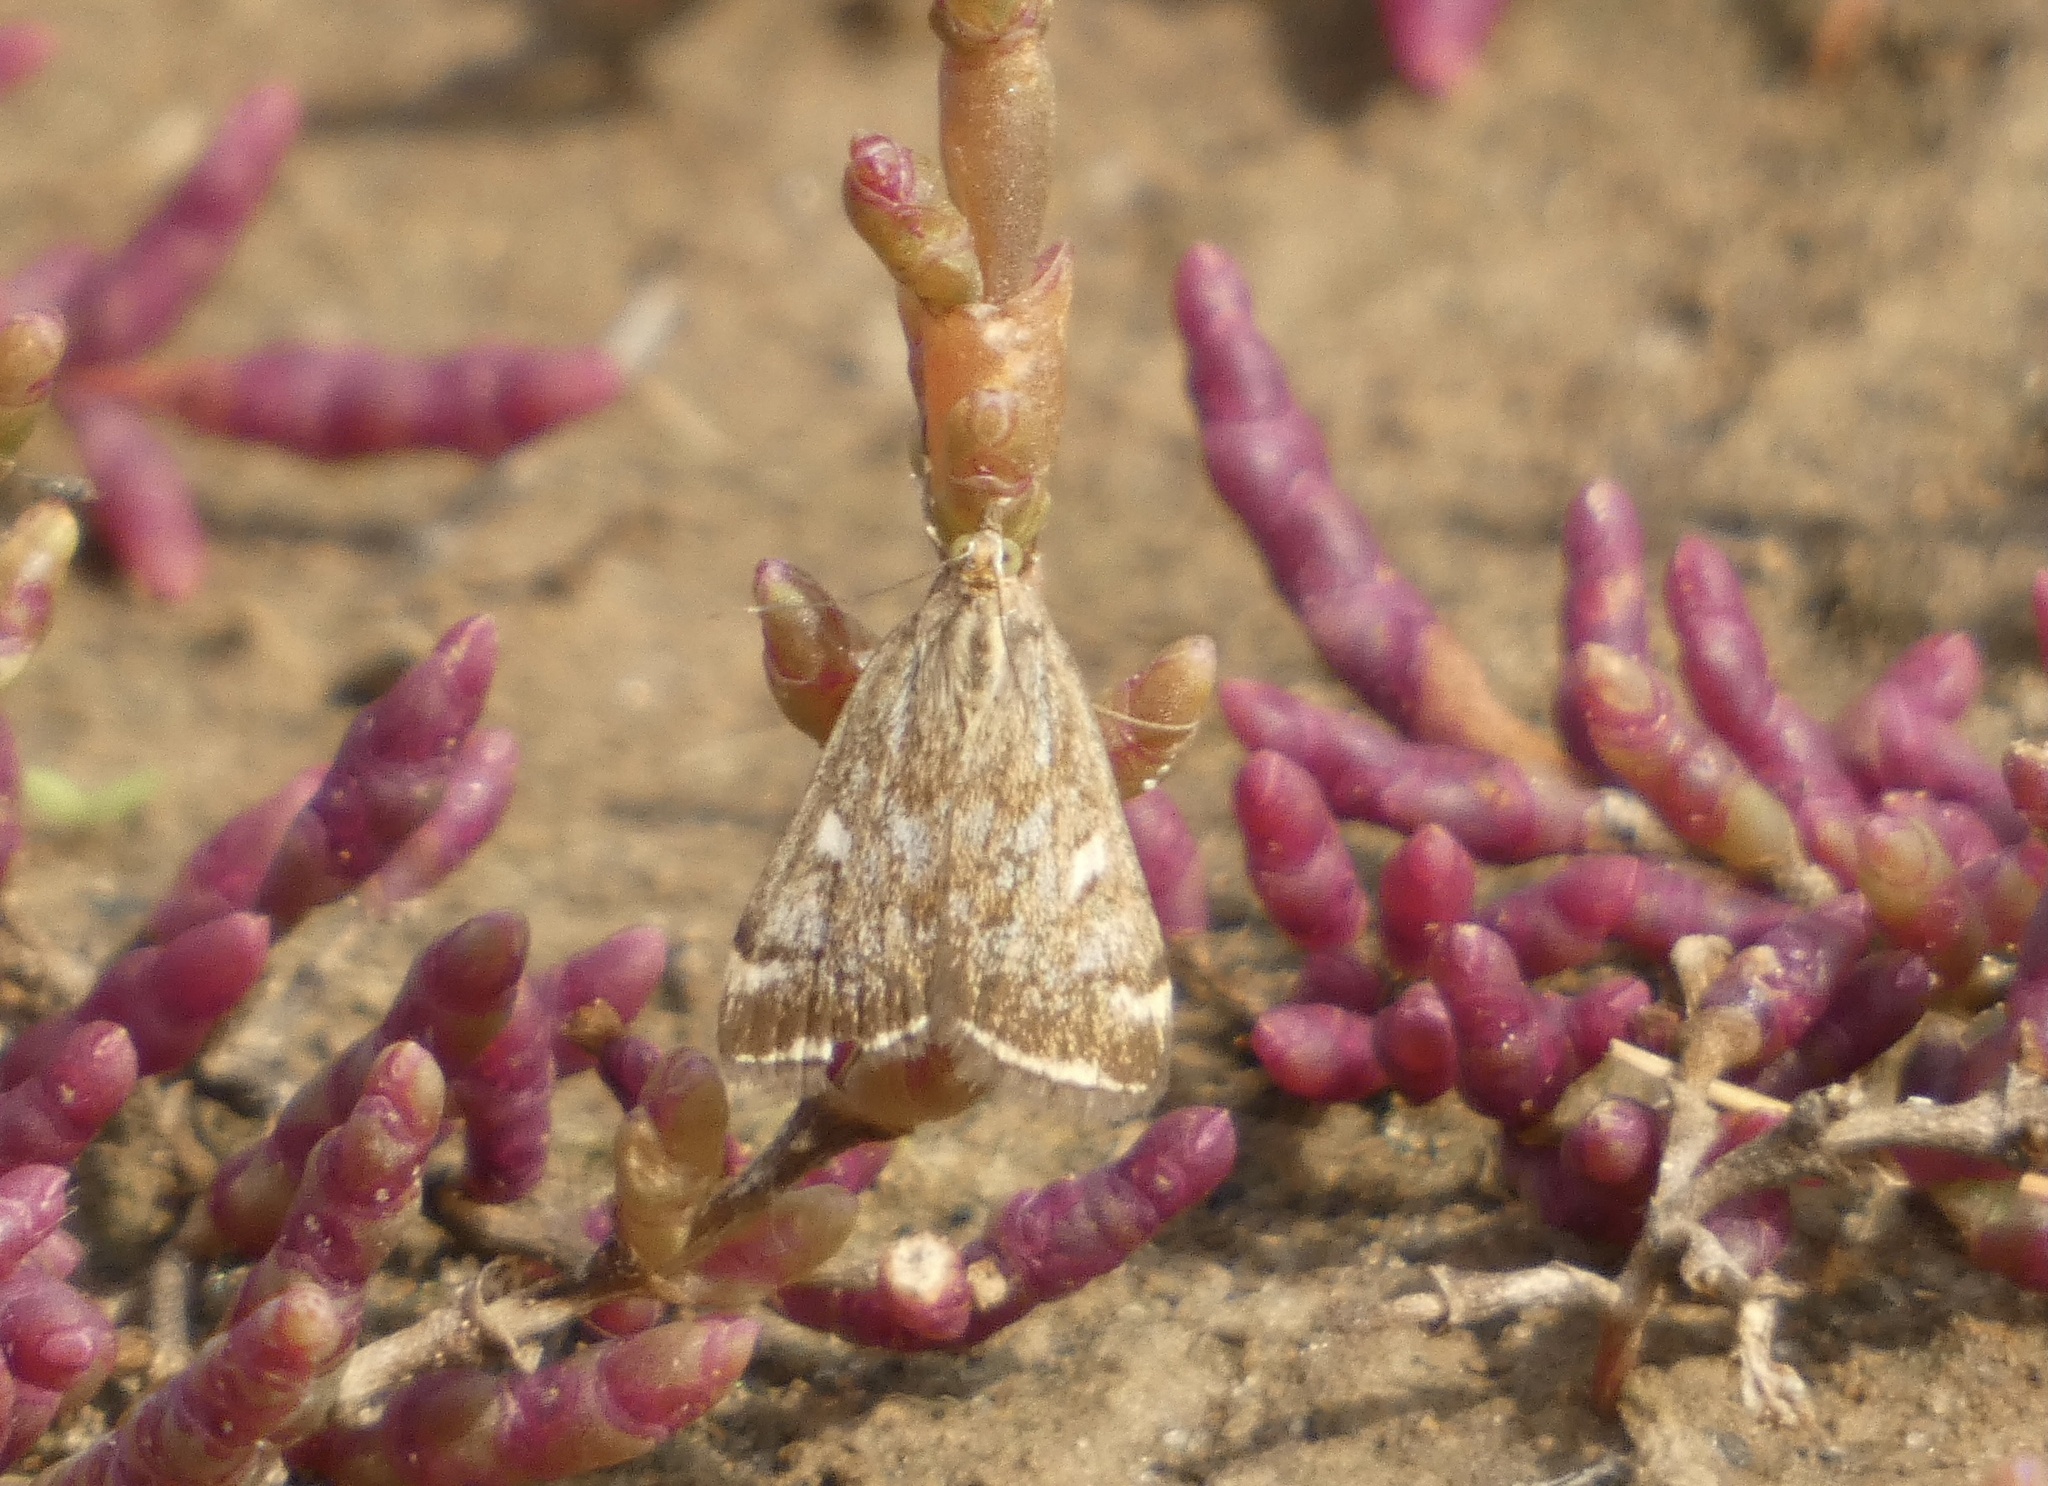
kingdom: Animalia
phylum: Arthropoda
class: Insecta
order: Lepidoptera
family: Crambidae
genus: Loxostege
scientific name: Loxostege sticticalis
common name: Crambid moth
